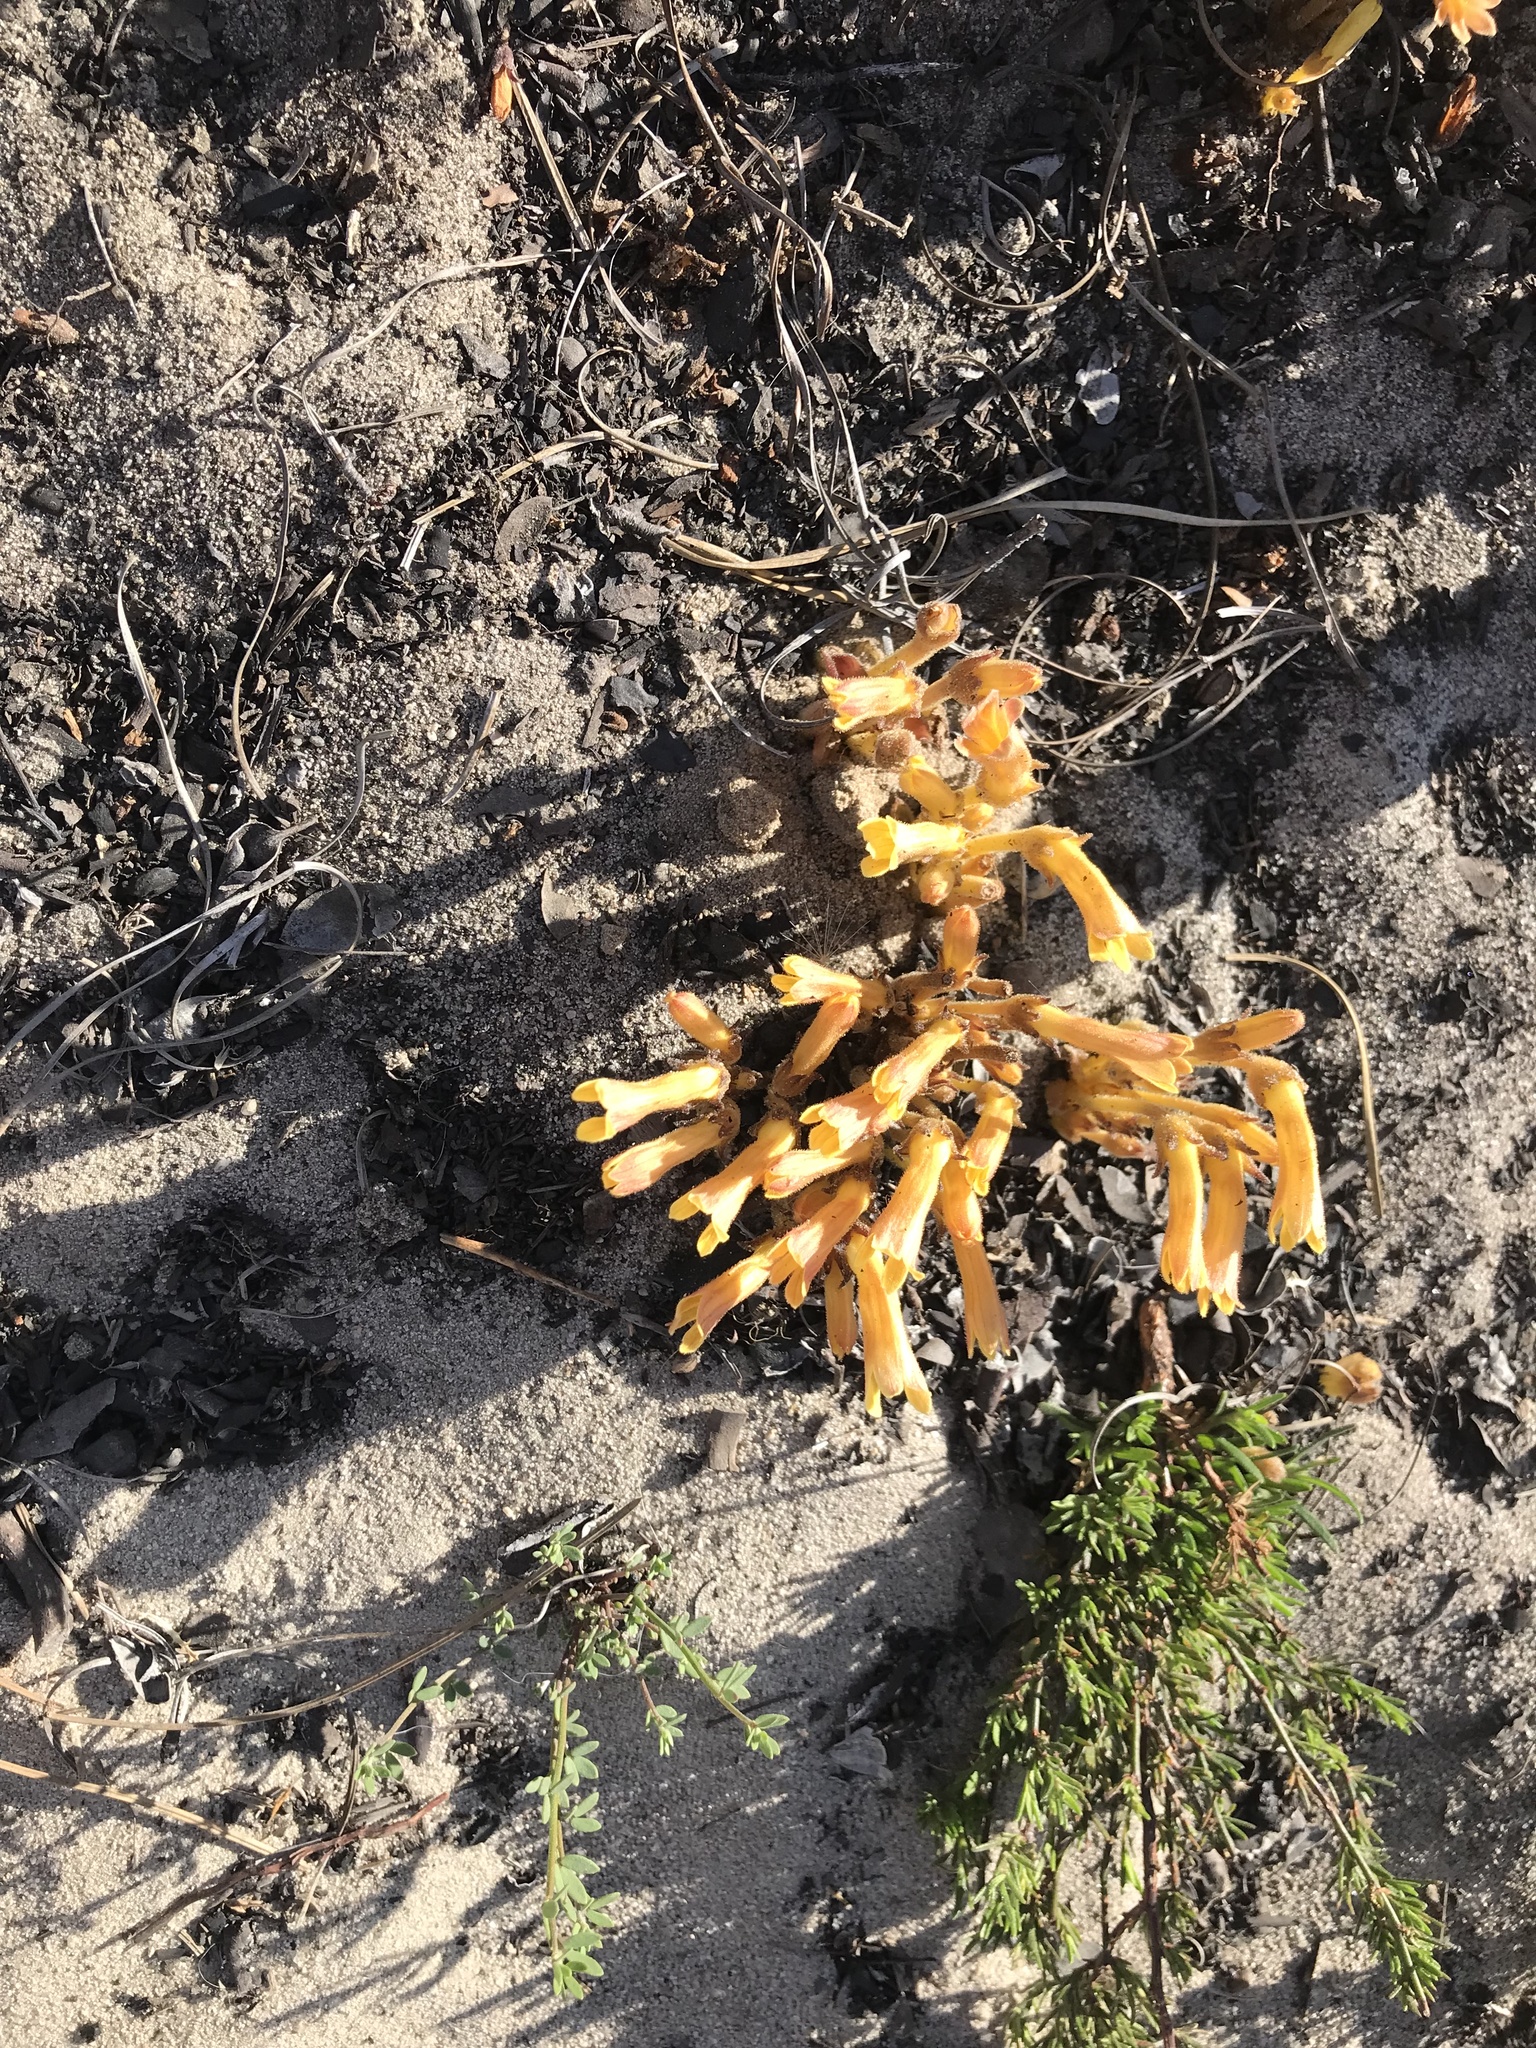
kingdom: Plantae
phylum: Tracheophyta
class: Magnoliopsida
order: Lamiales
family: Orobanchaceae
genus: Aphyllon
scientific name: Aphyllon franciscanum
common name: San francisco broomrape
